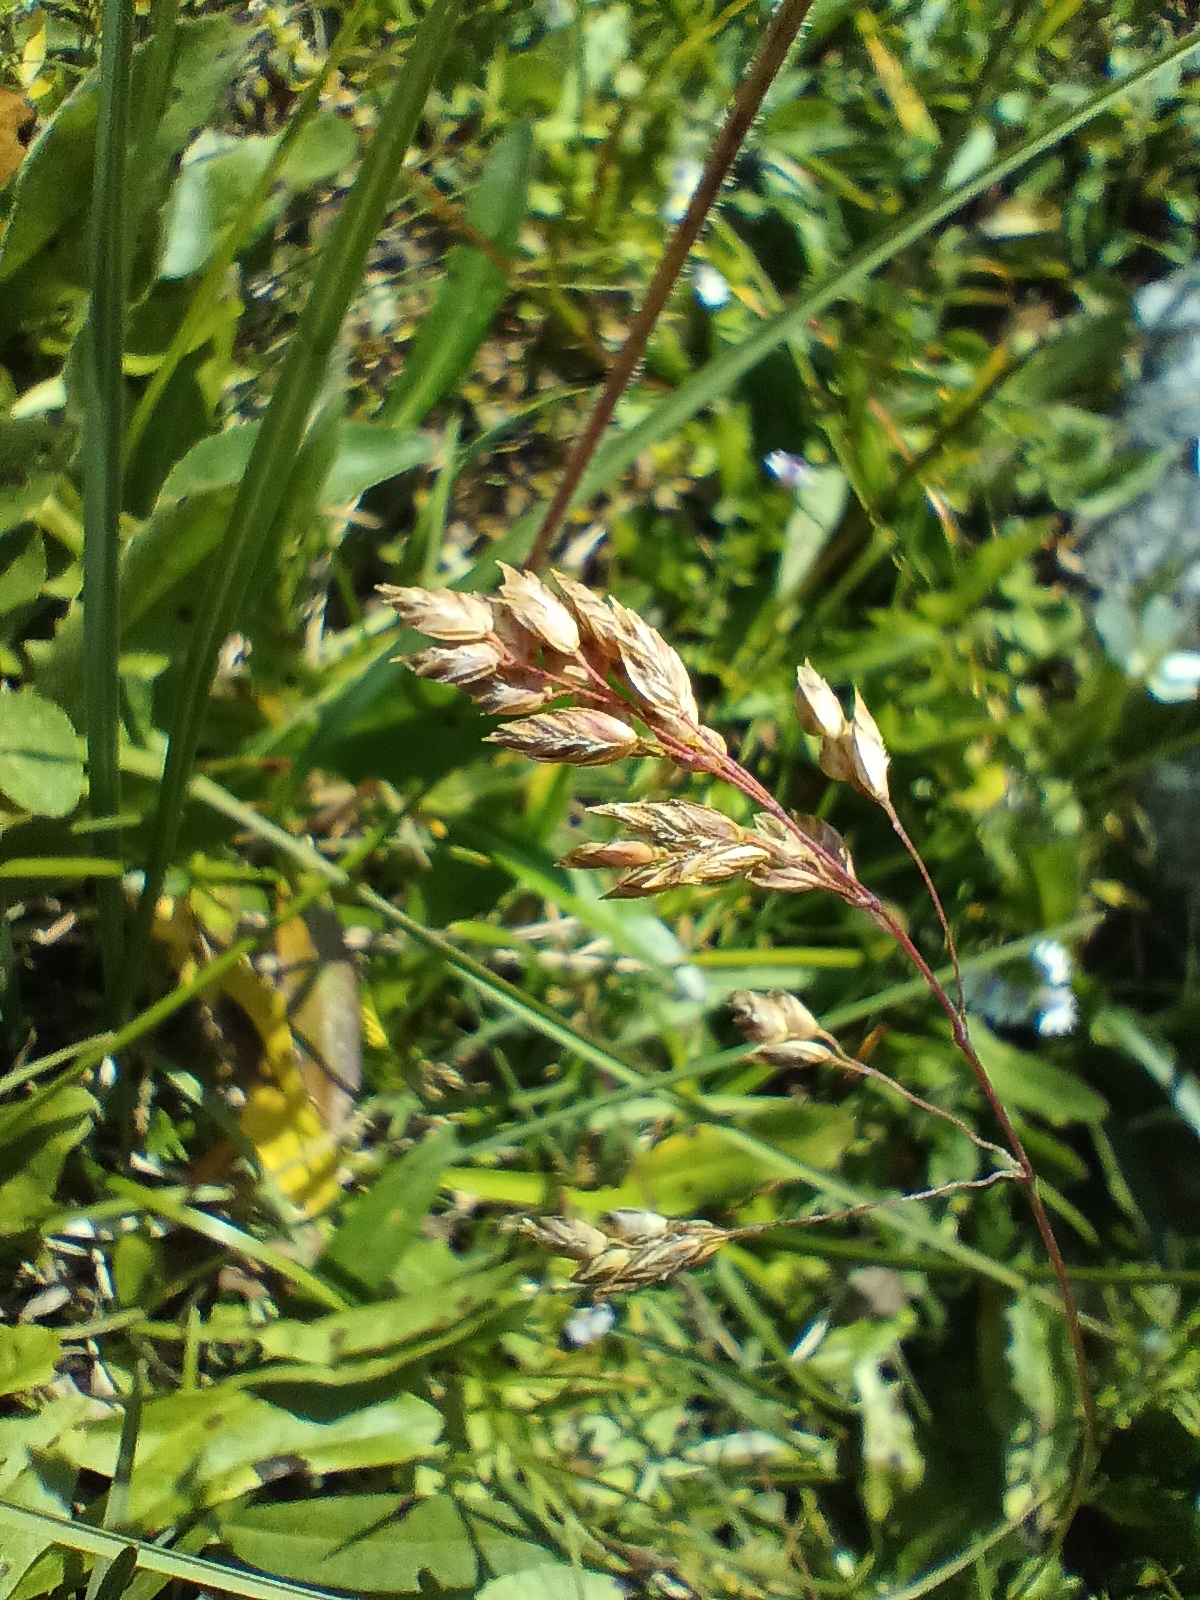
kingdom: Plantae
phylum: Tracheophyta
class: Liliopsida
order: Poales
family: Poaceae
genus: Poa
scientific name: Poa alpina
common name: Alpine bluegrass
